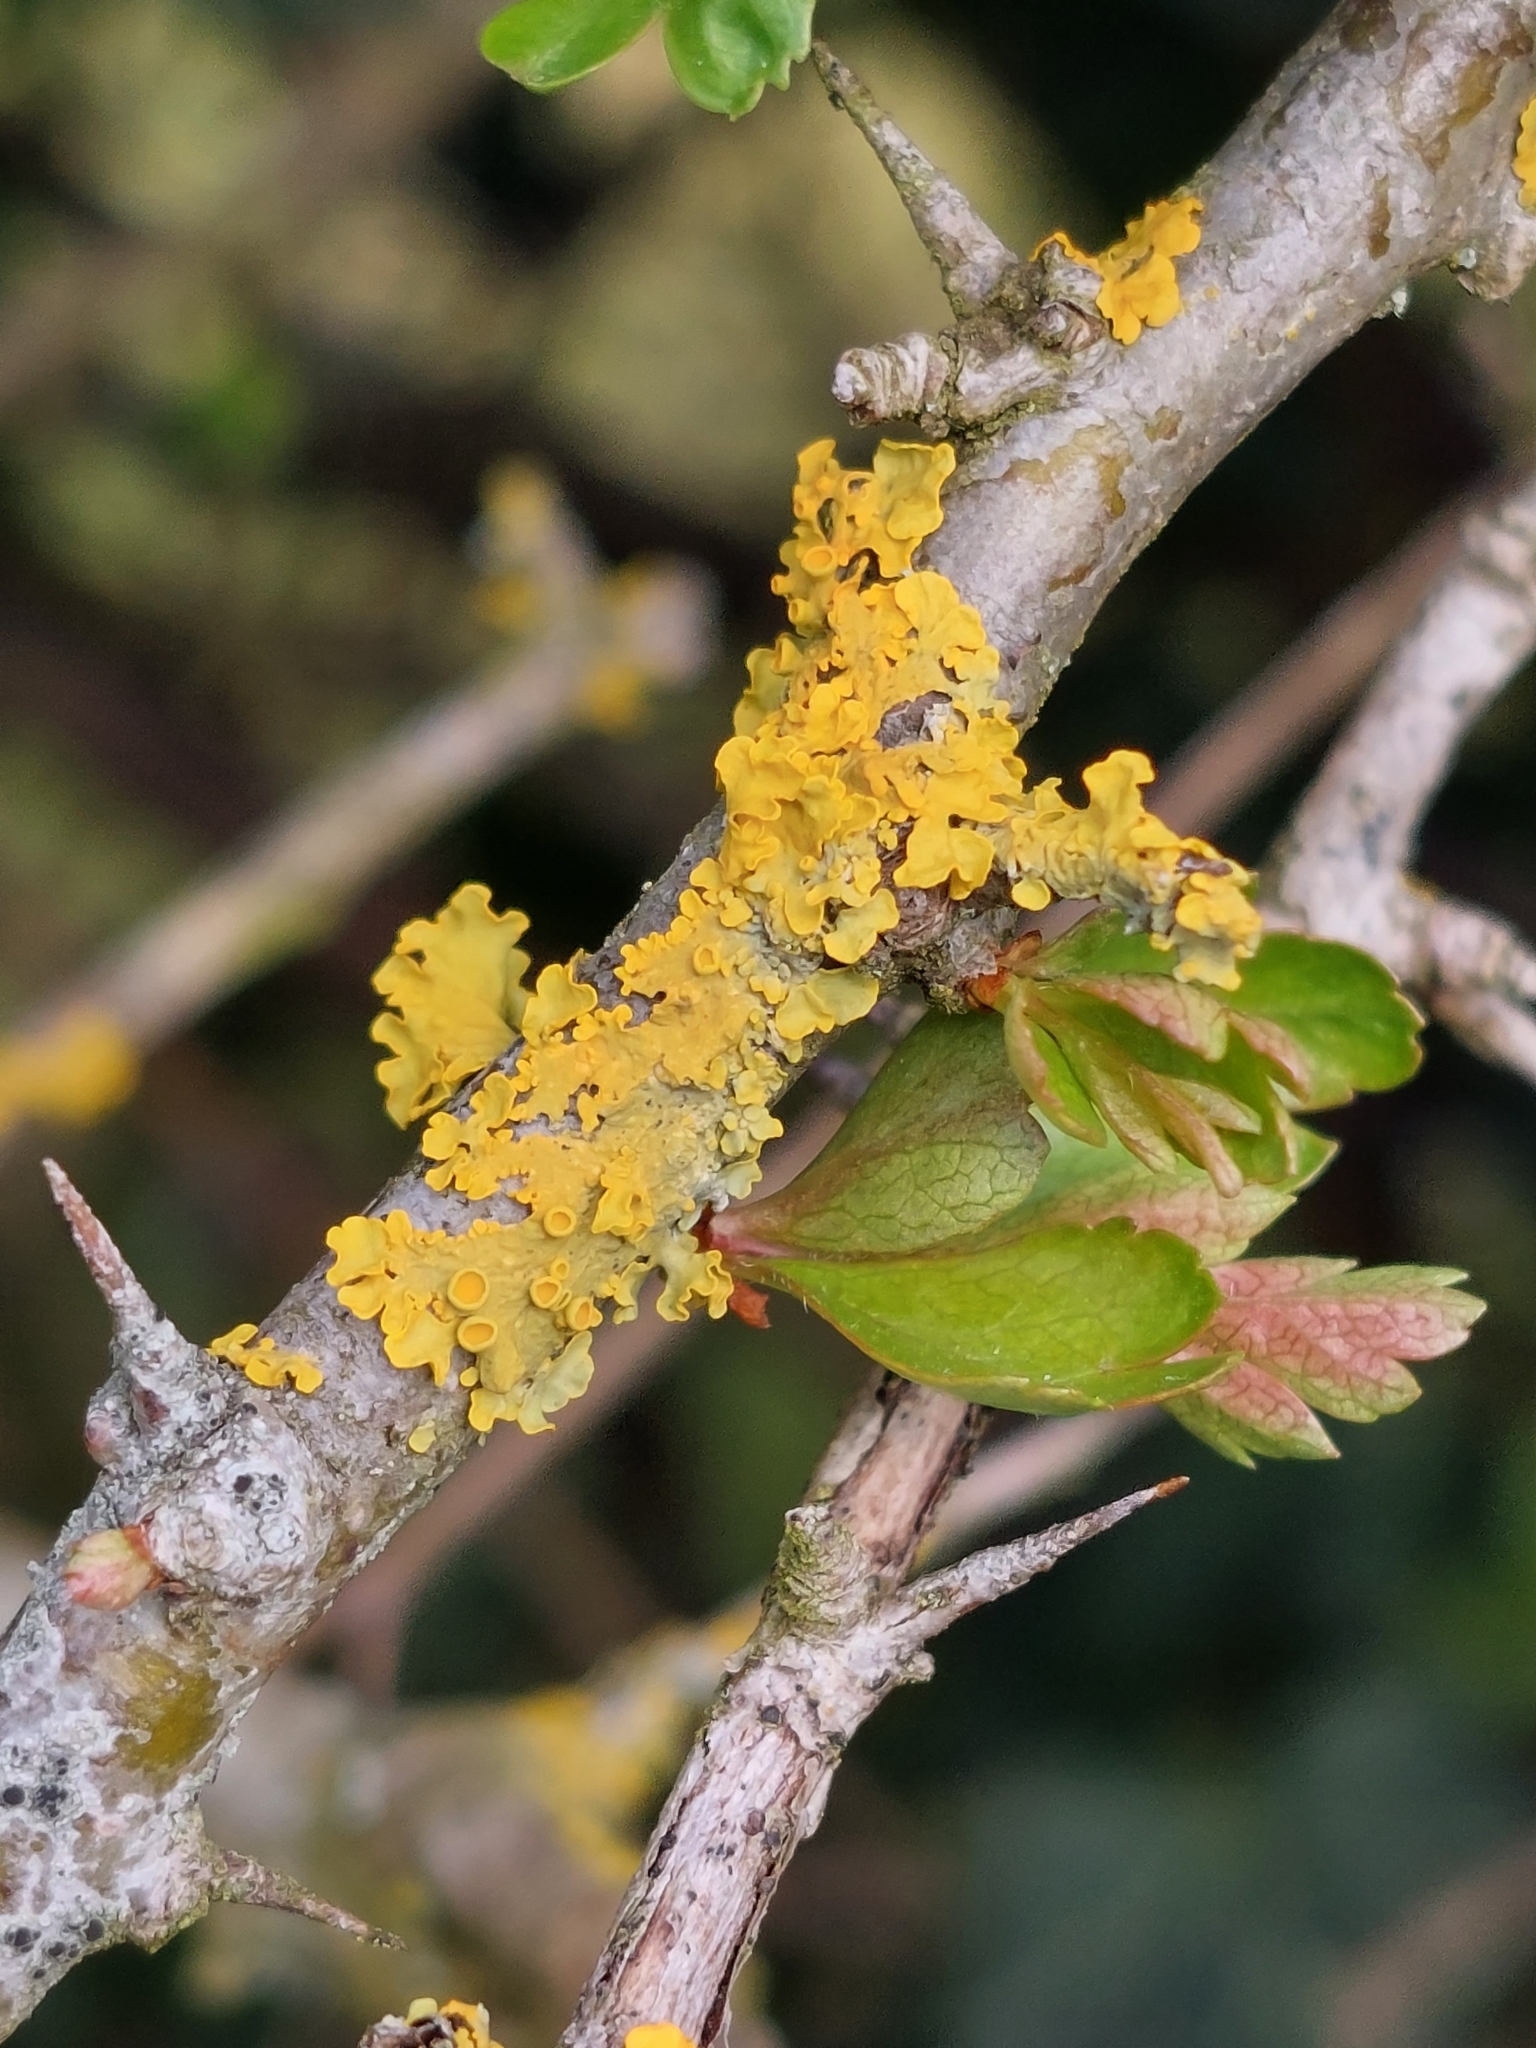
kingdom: Fungi
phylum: Ascomycota
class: Lecanoromycetes
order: Teloschistales
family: Teloschistaceae
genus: Xanthoria
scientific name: Xanthoria parietina
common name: Common orange lichen
